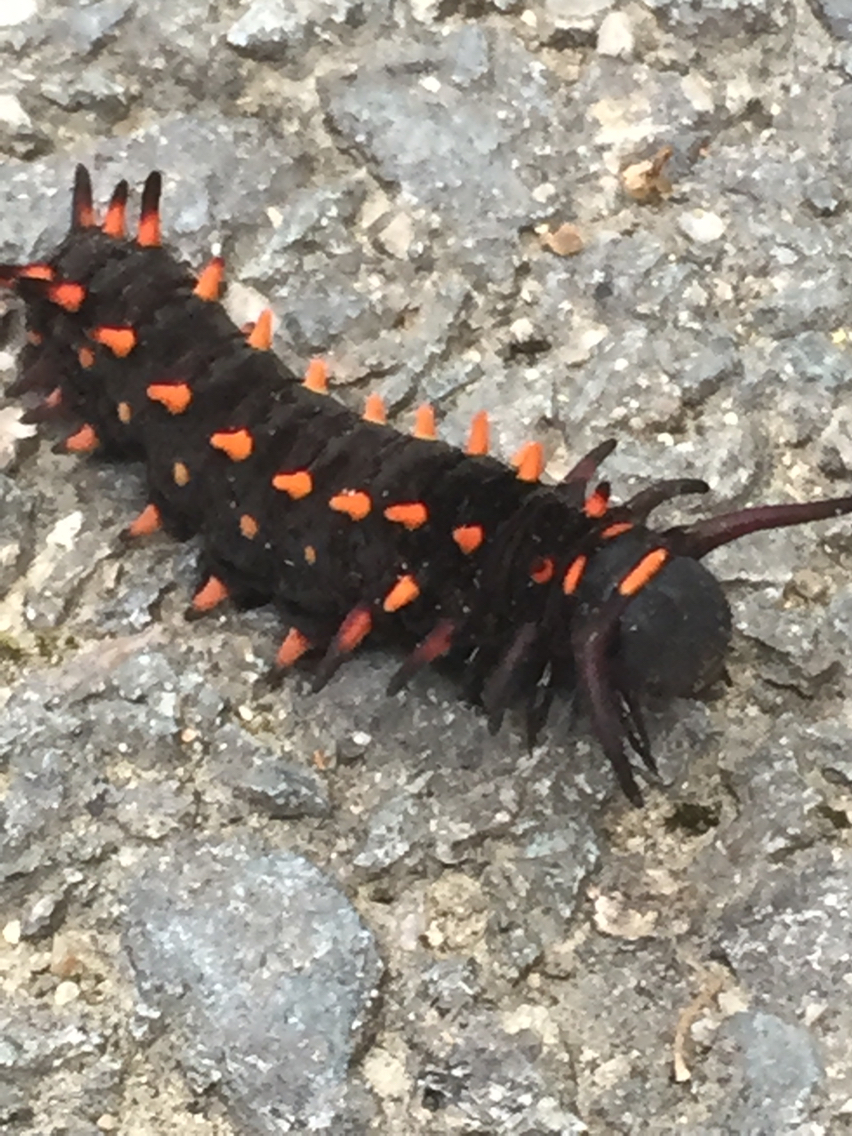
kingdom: Animalia
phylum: Arthropoda
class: Insecta
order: Lepidoptera
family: Papilionidae
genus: Battus
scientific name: Battus philenor
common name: Pipevine swallowtail
